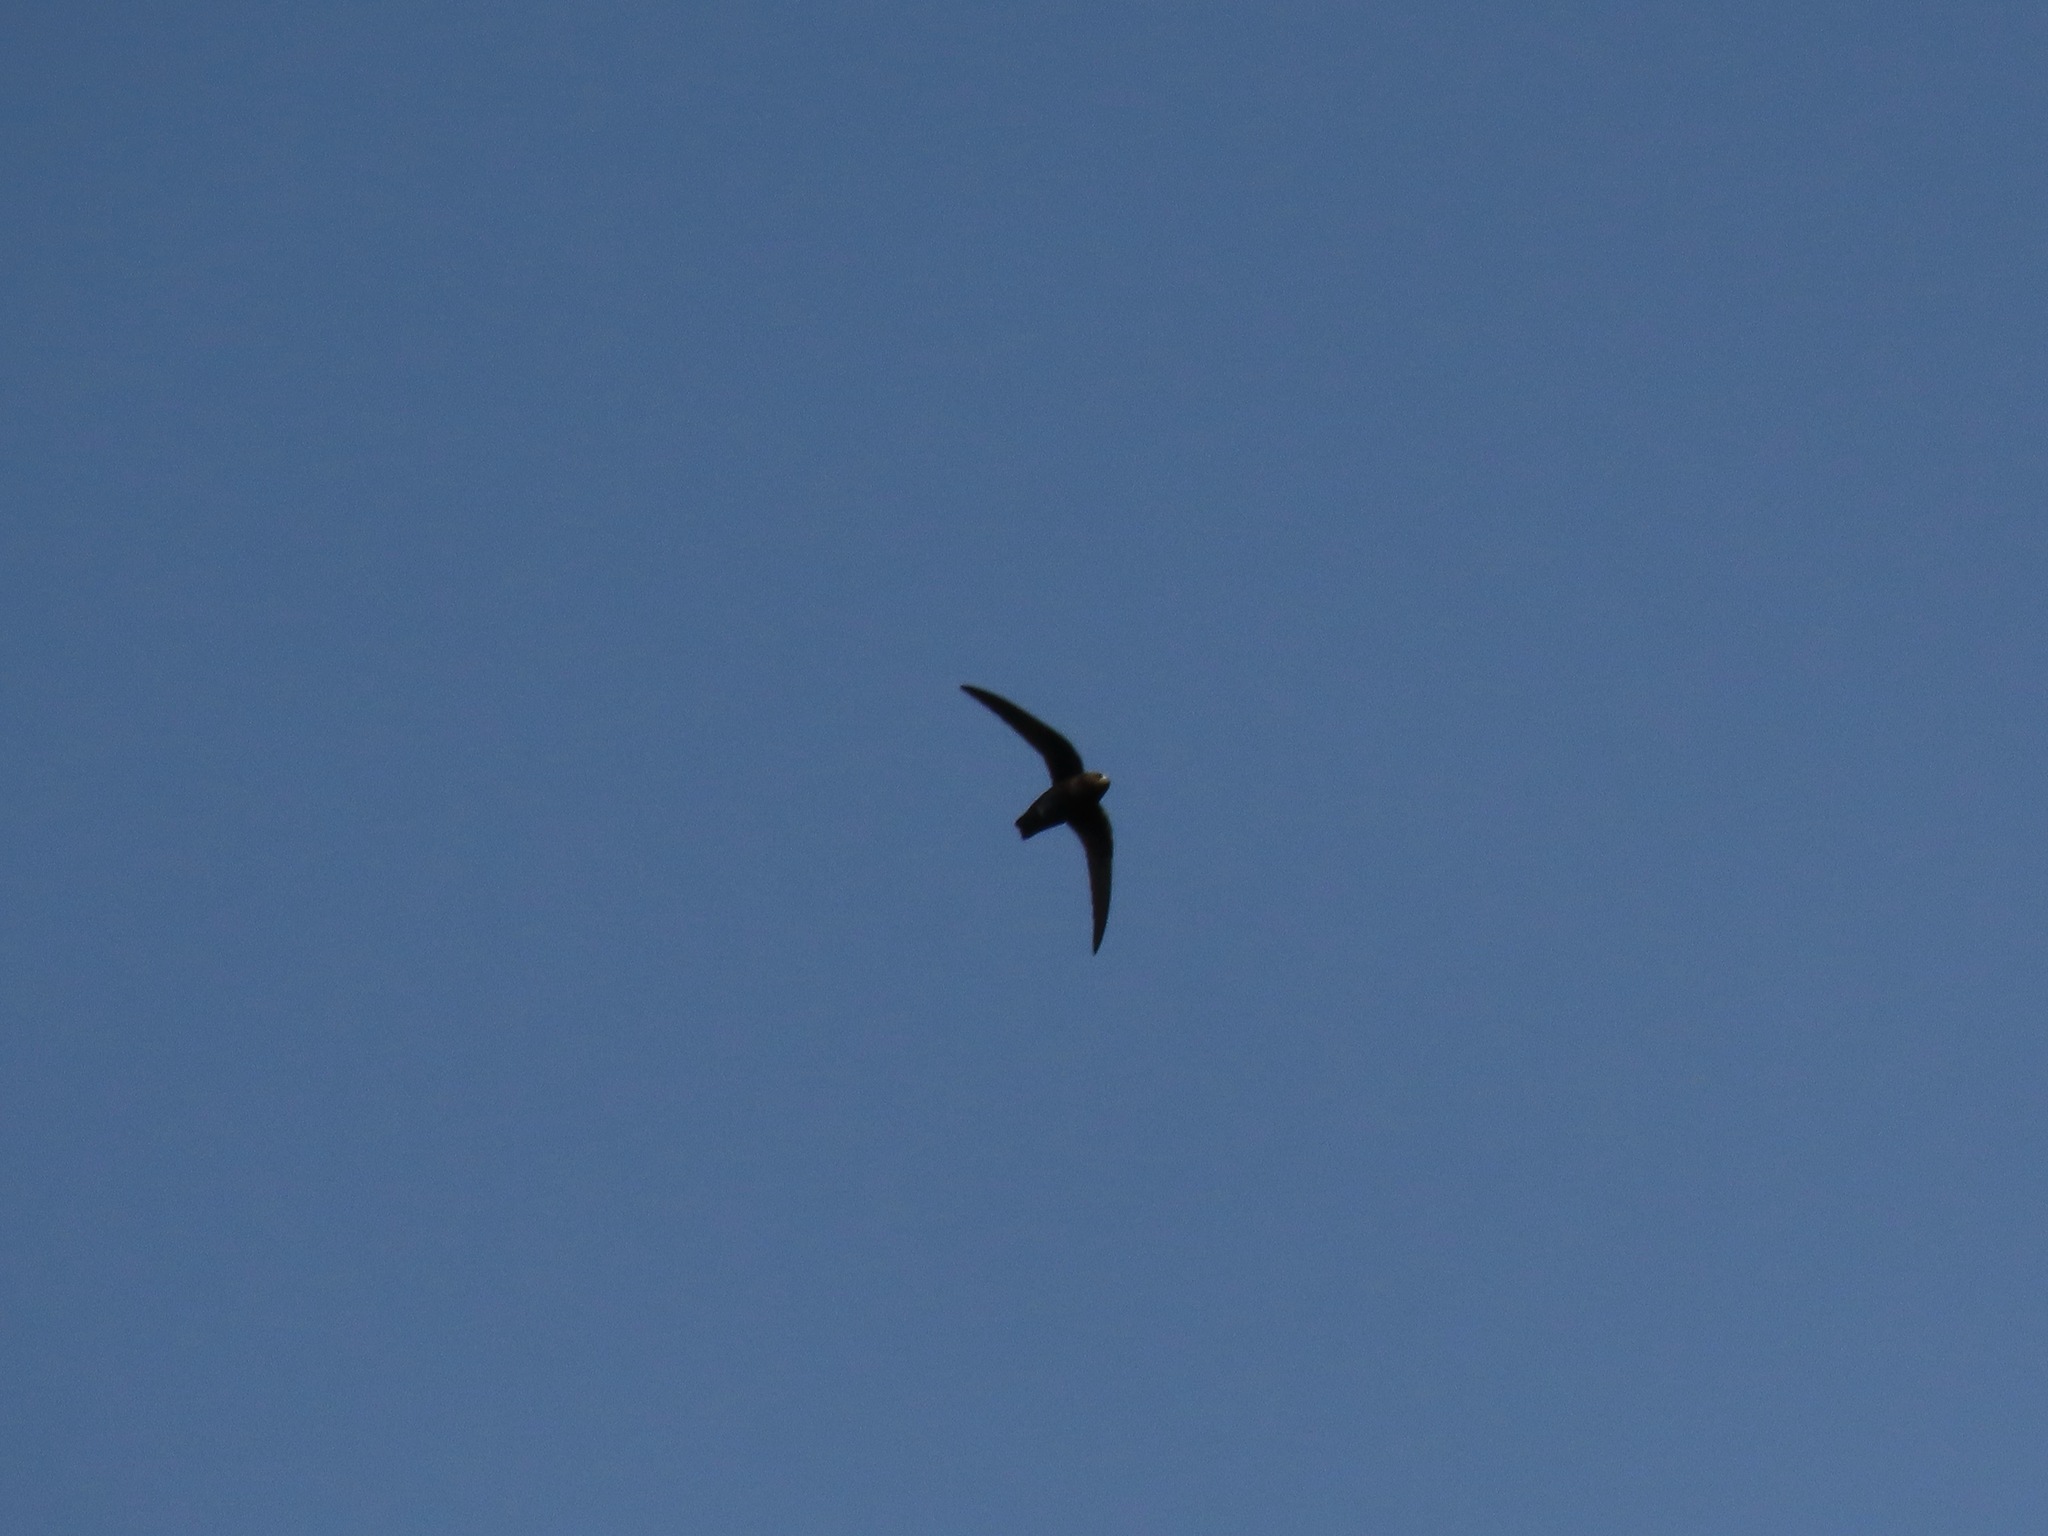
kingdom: Animalia
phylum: Chordata
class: Aves
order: Apodiformes
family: Apodidae
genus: Cypseloides
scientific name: Cypseloides niger
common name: Black swift
